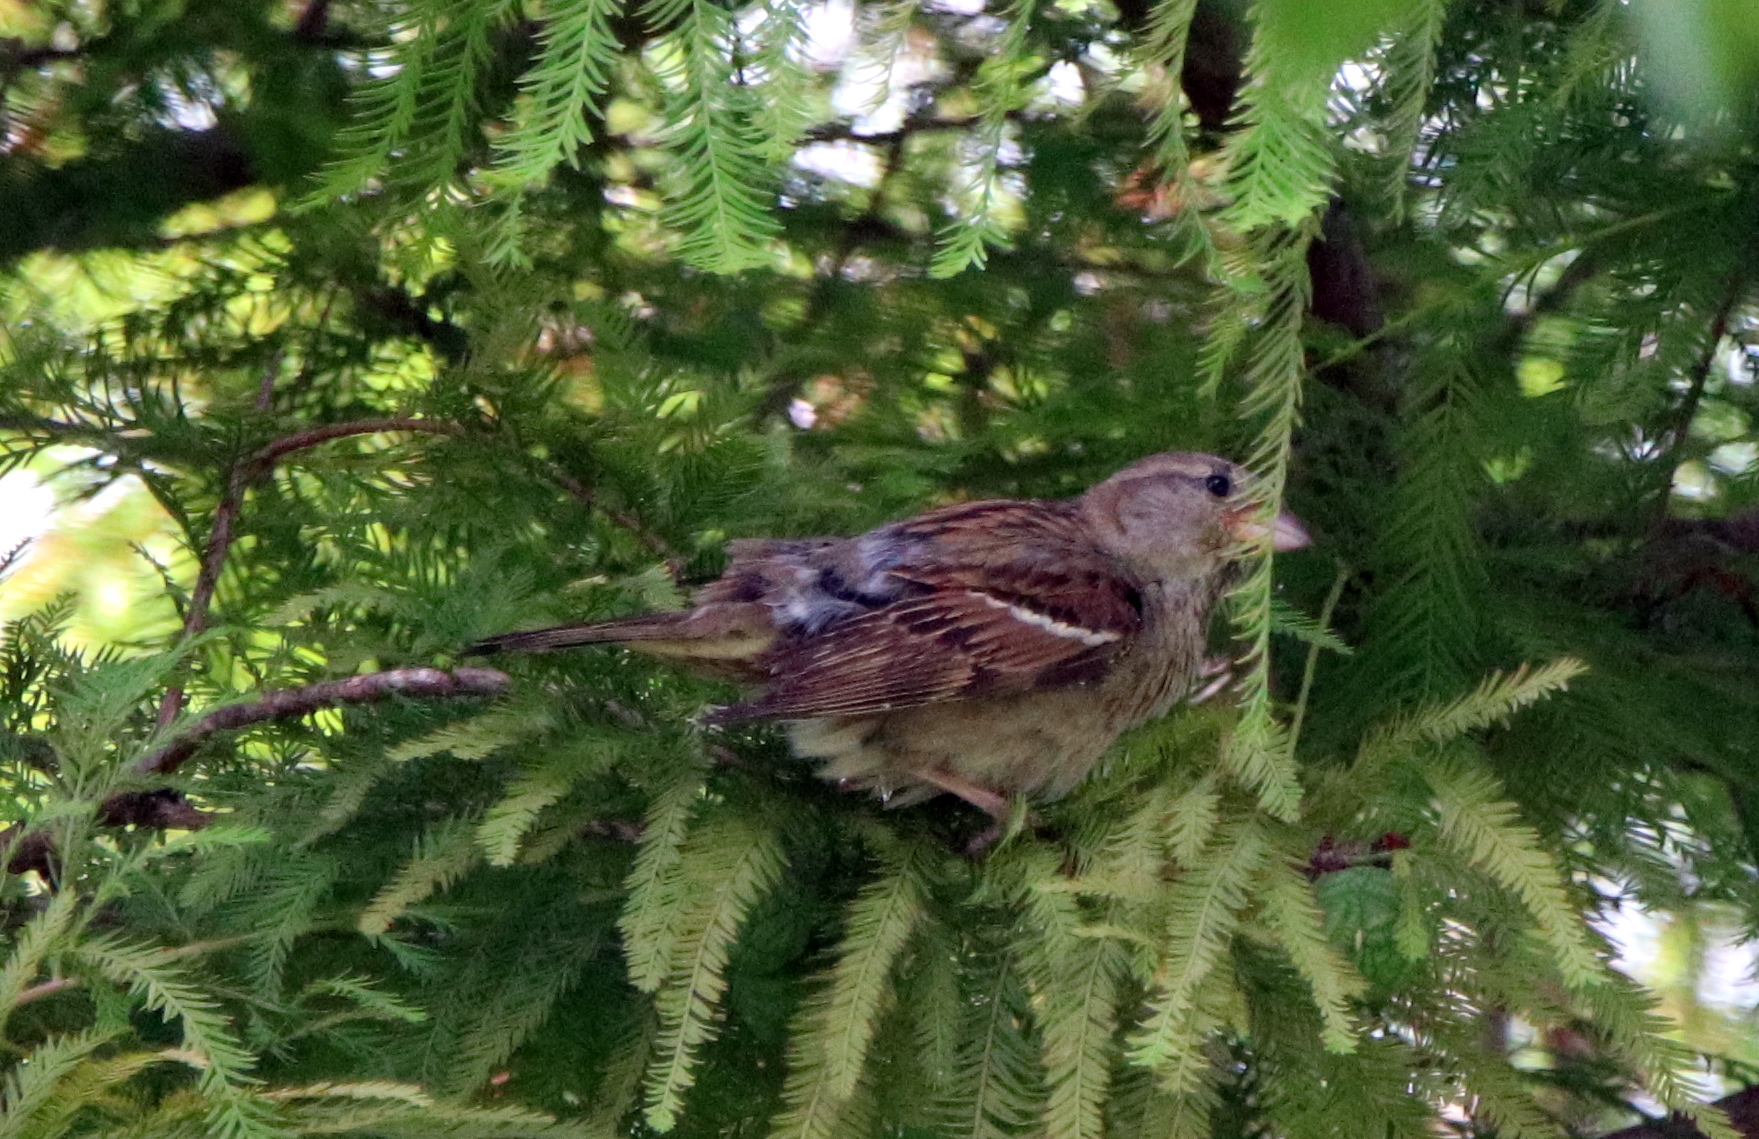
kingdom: Animalia
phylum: Chordata
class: Aves
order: Passeriformes
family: Passeridae
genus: Passer
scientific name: Passer domesticus
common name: House sparrow
